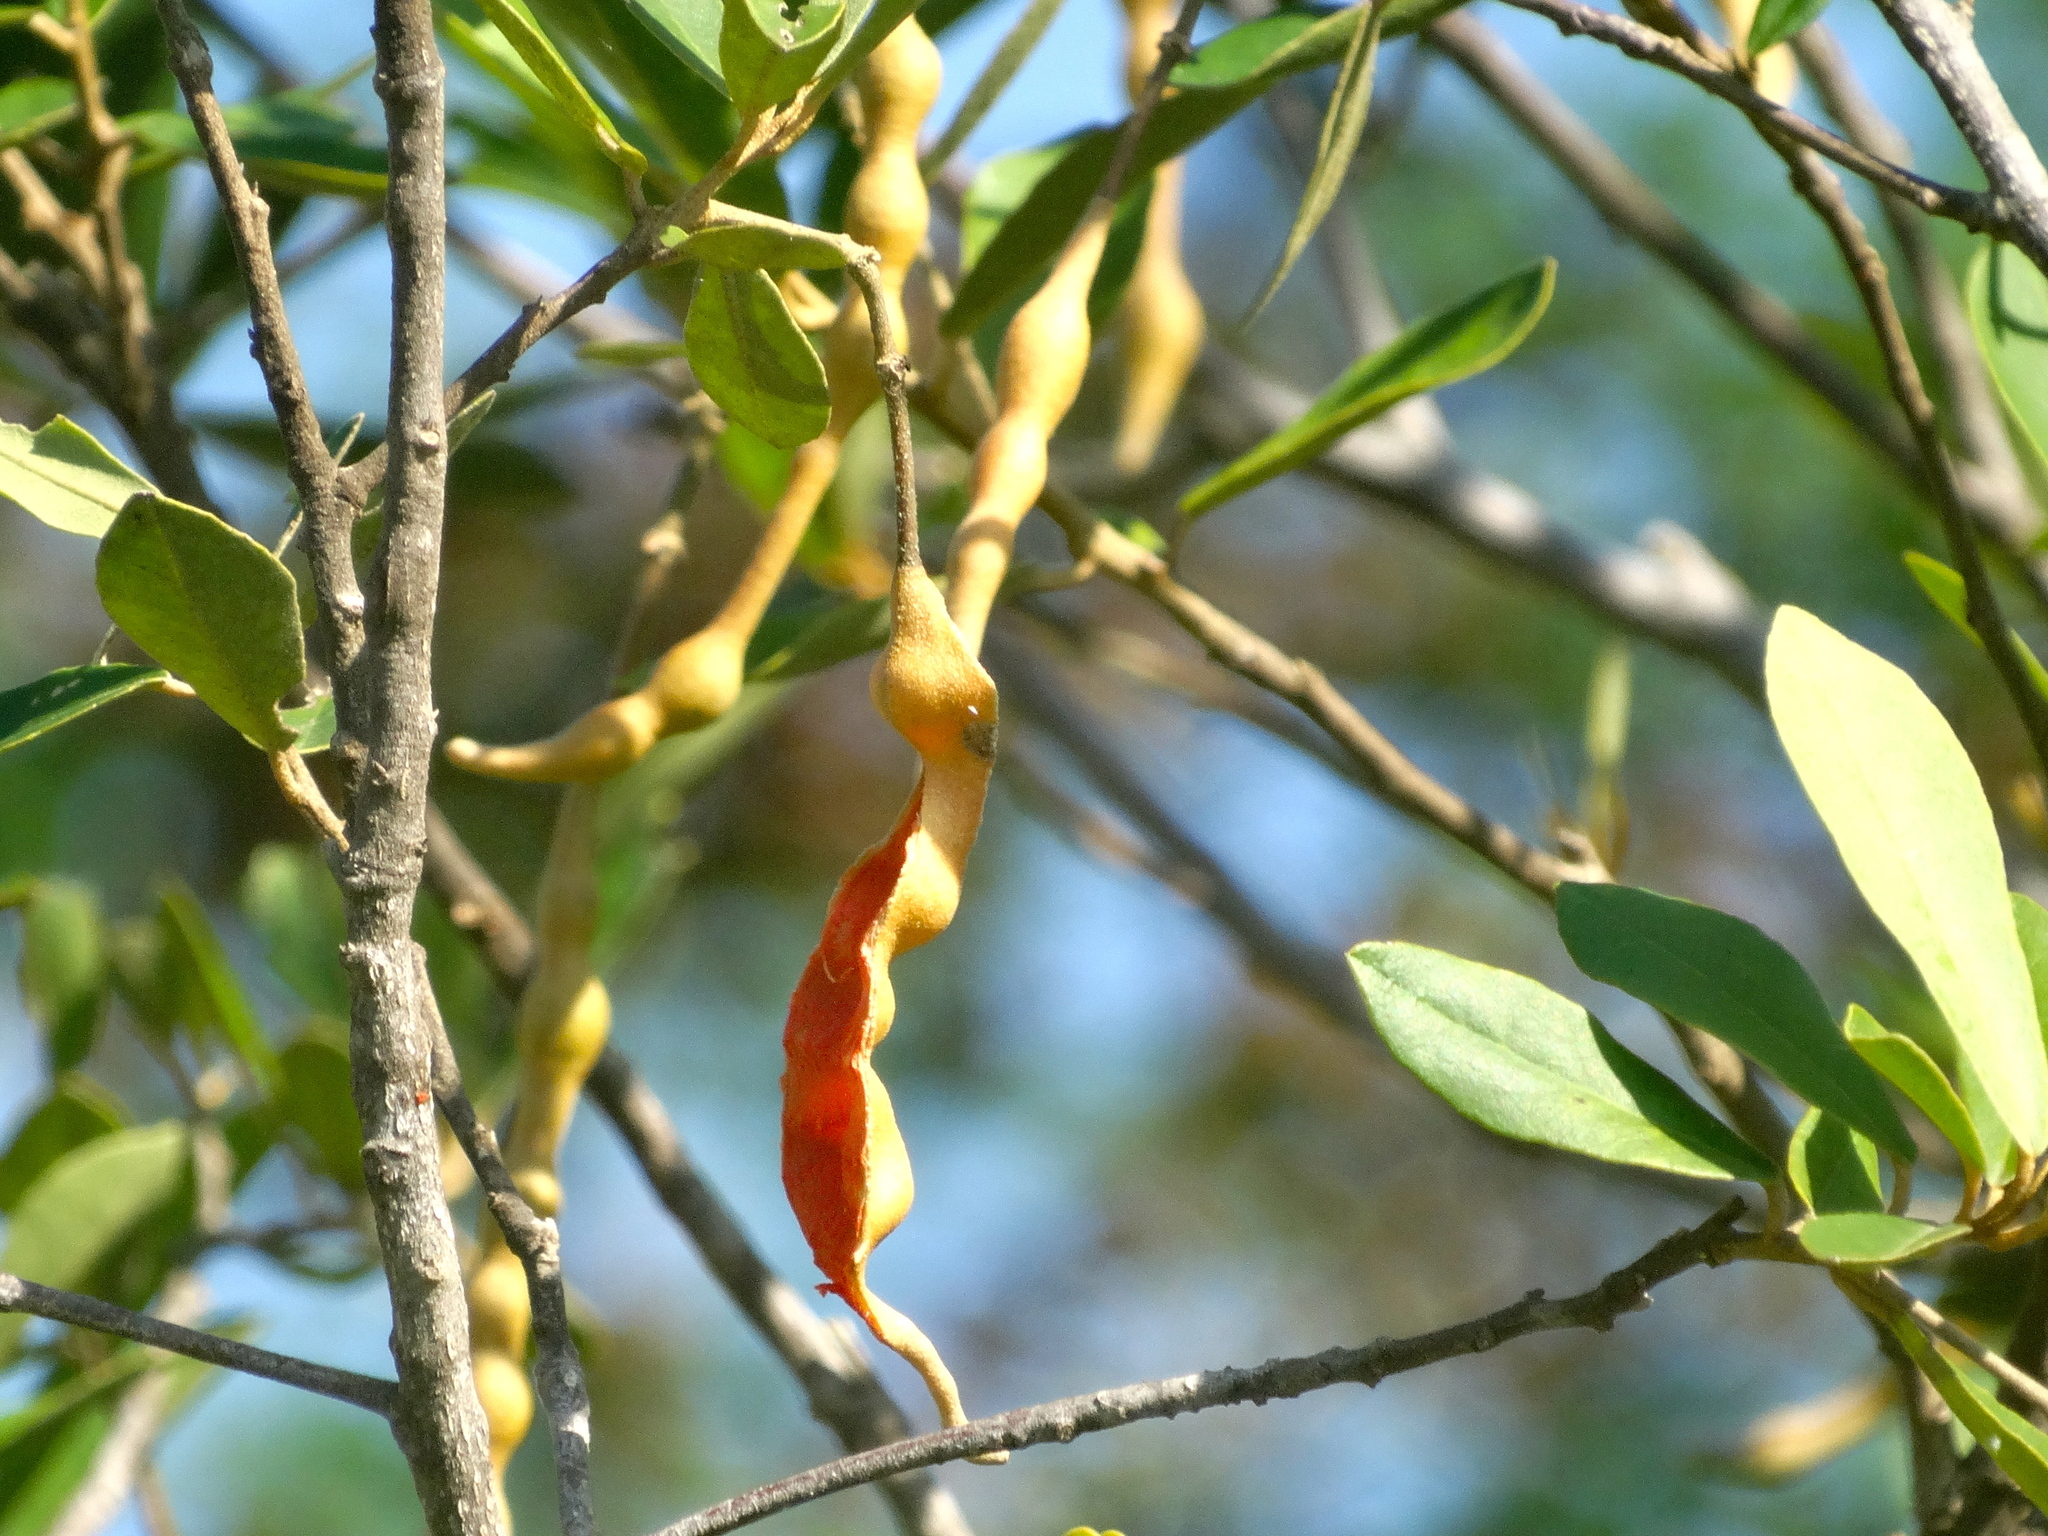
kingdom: Plantae
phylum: Tracheophyta
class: Magnoliopsida
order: Brassicales
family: Capparaceae
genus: Quadrella
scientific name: Quadrella indica
